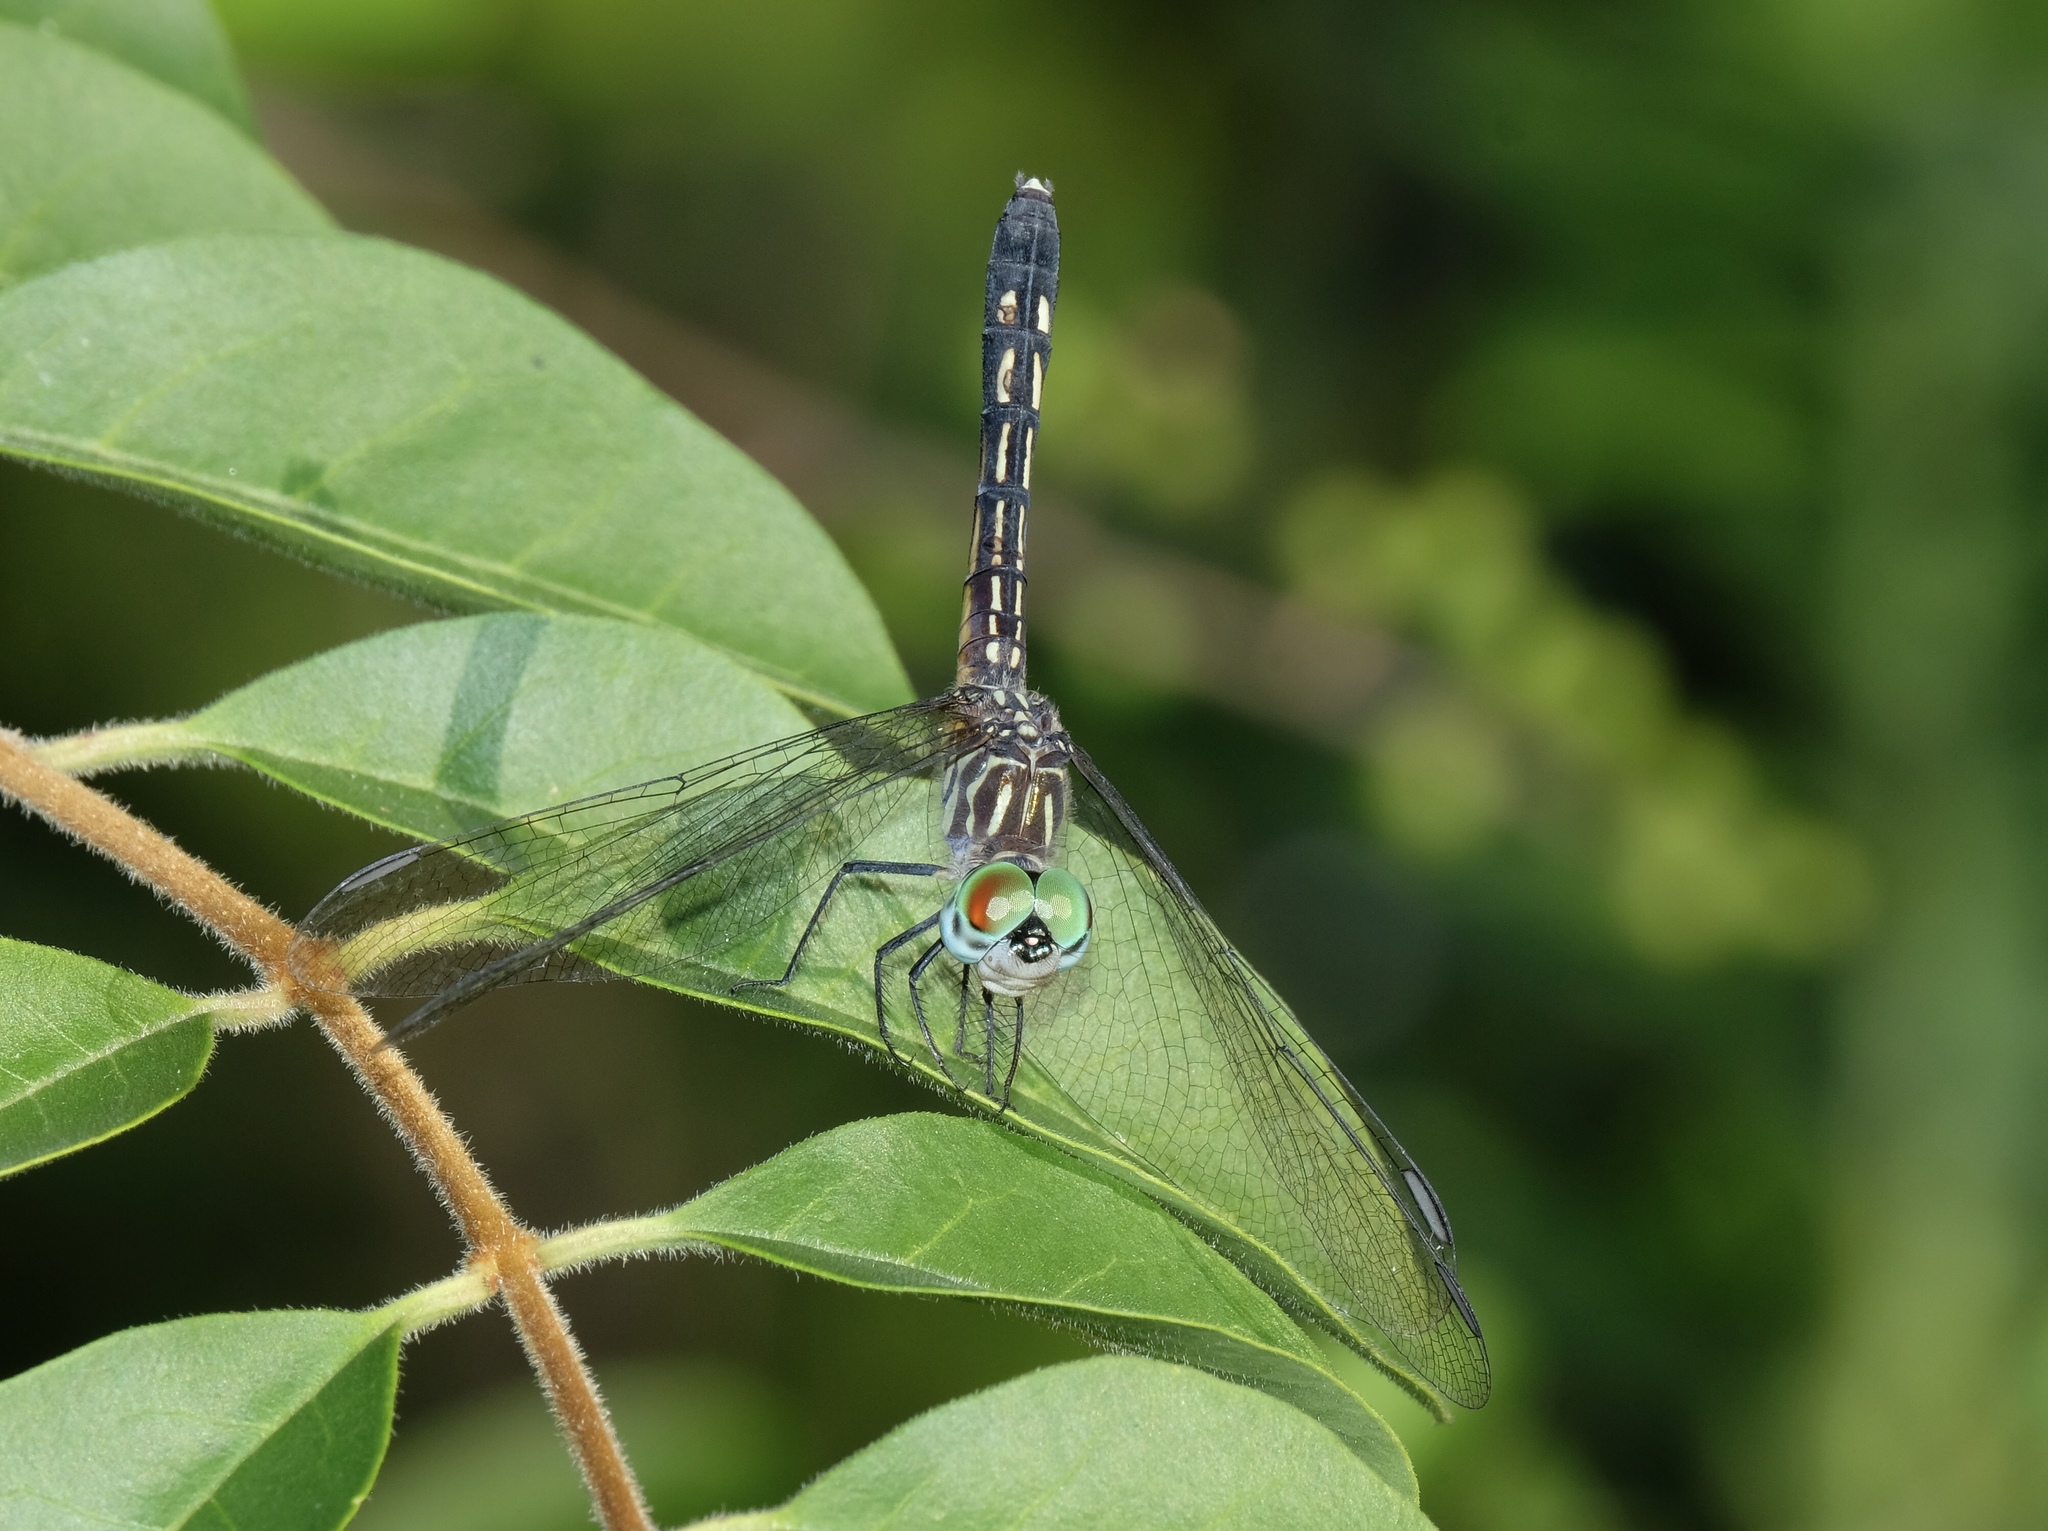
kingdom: Animalia
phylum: Arthropoda
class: Insecta
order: Odonata
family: Libellulidae
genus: Pachydiplax
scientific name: Pachydiplax longipennis
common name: Blue dasher
